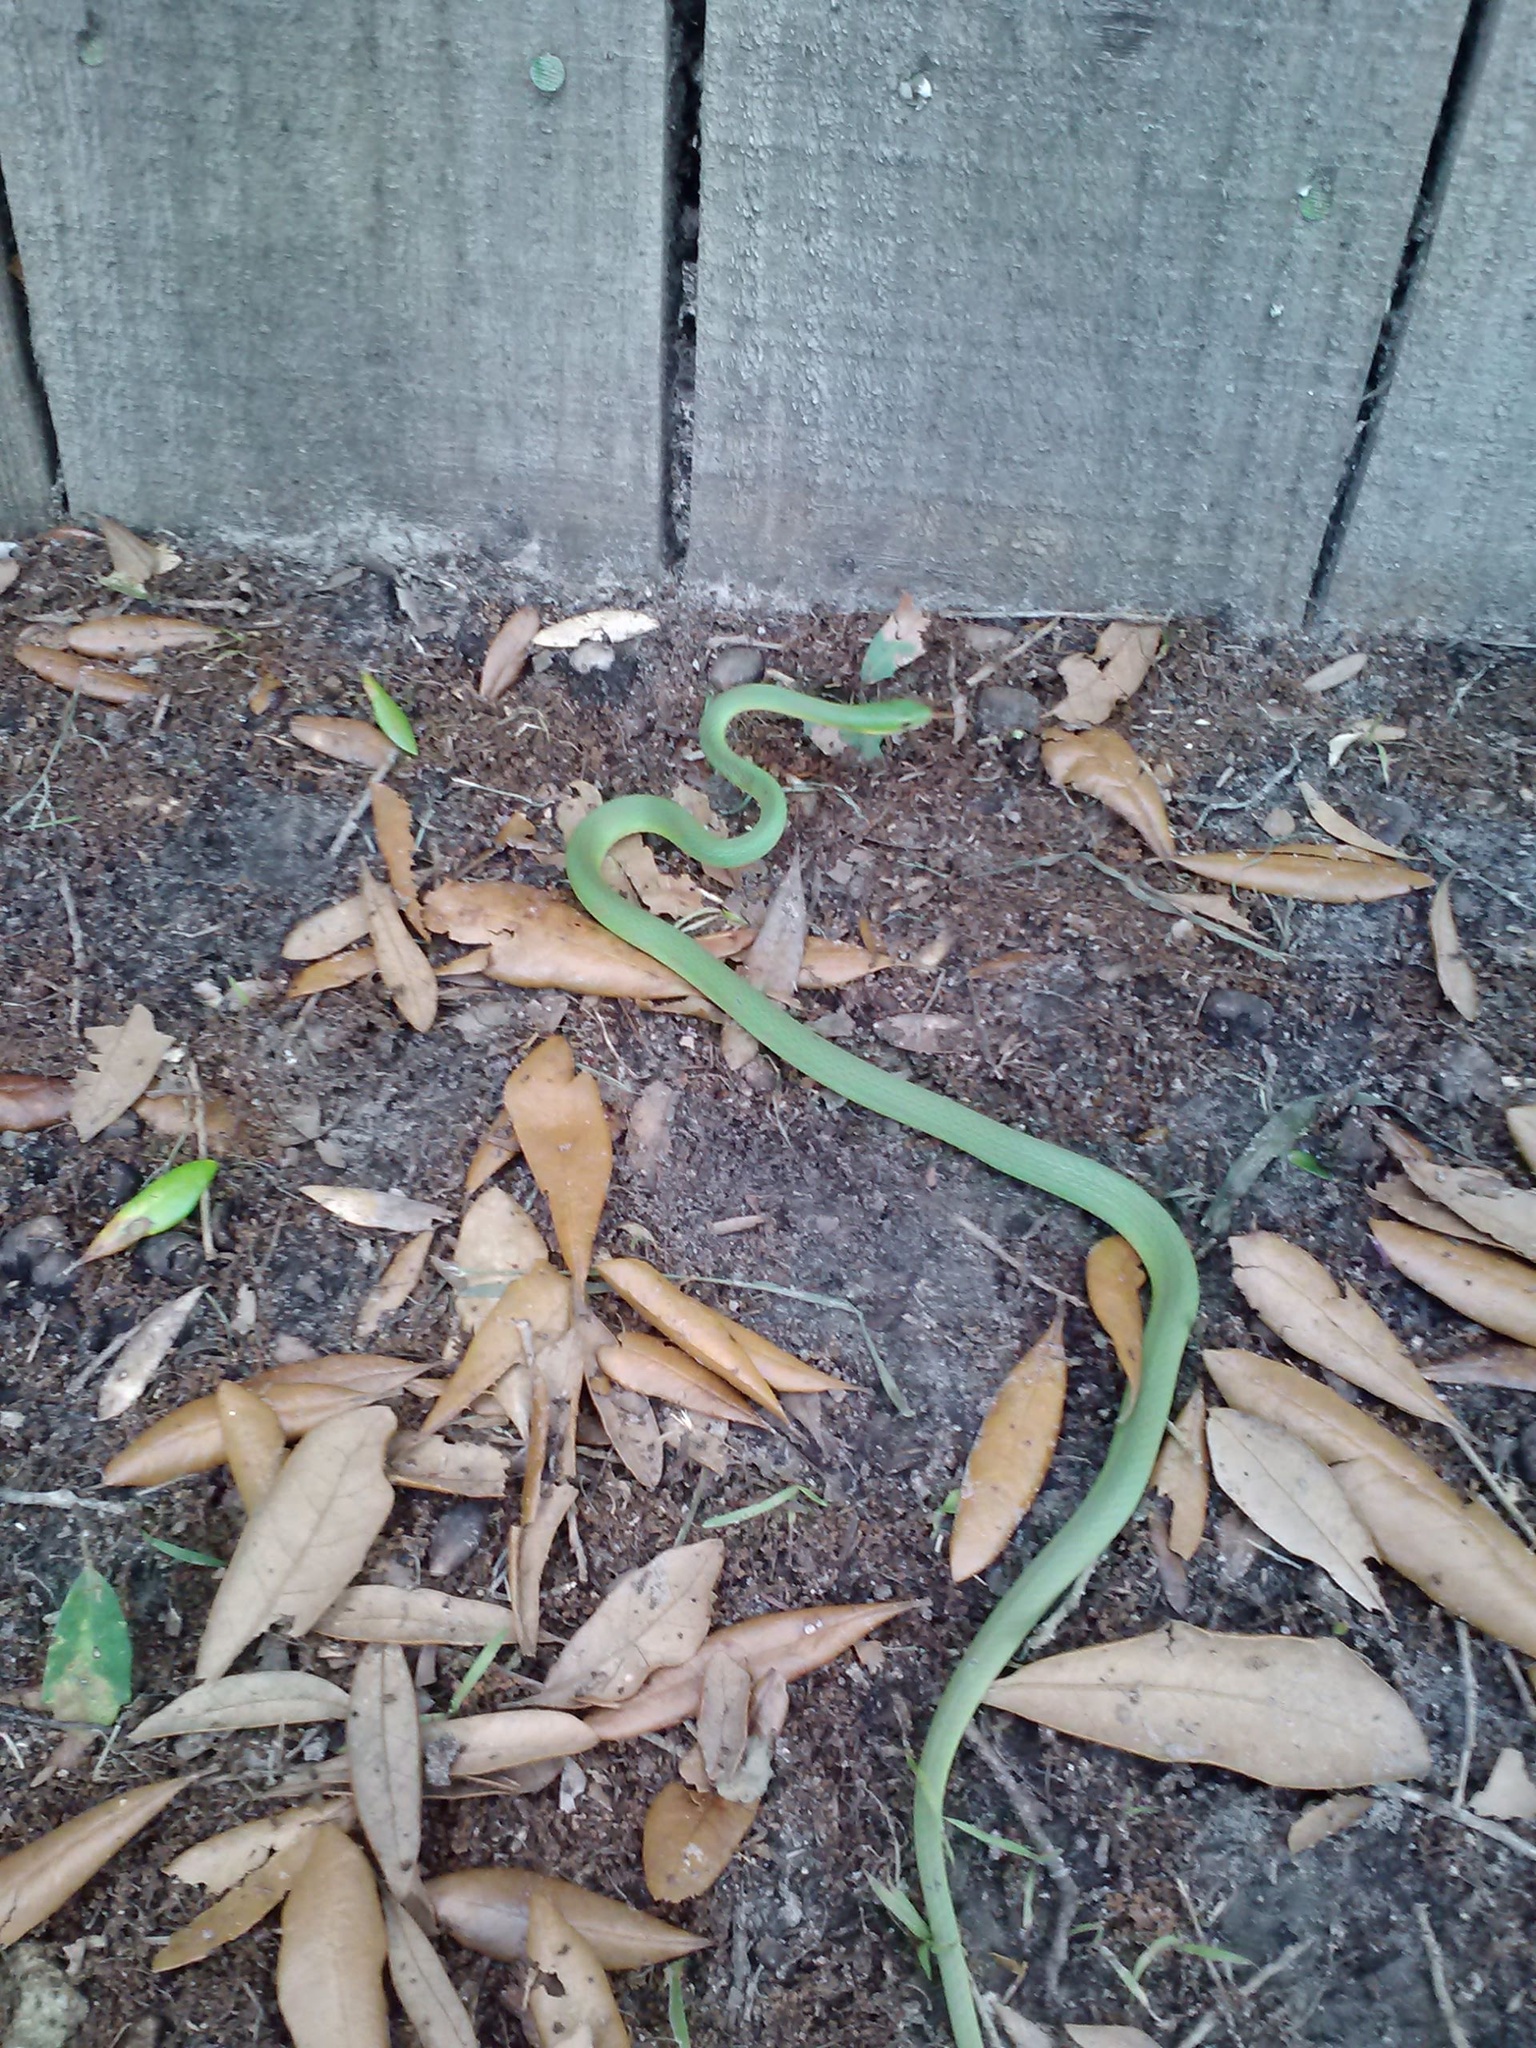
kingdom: Animalia
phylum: Chordata
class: Squamata
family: Colubridae
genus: Opheodrys
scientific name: Opheodrys aestivus
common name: Rough greensnake
